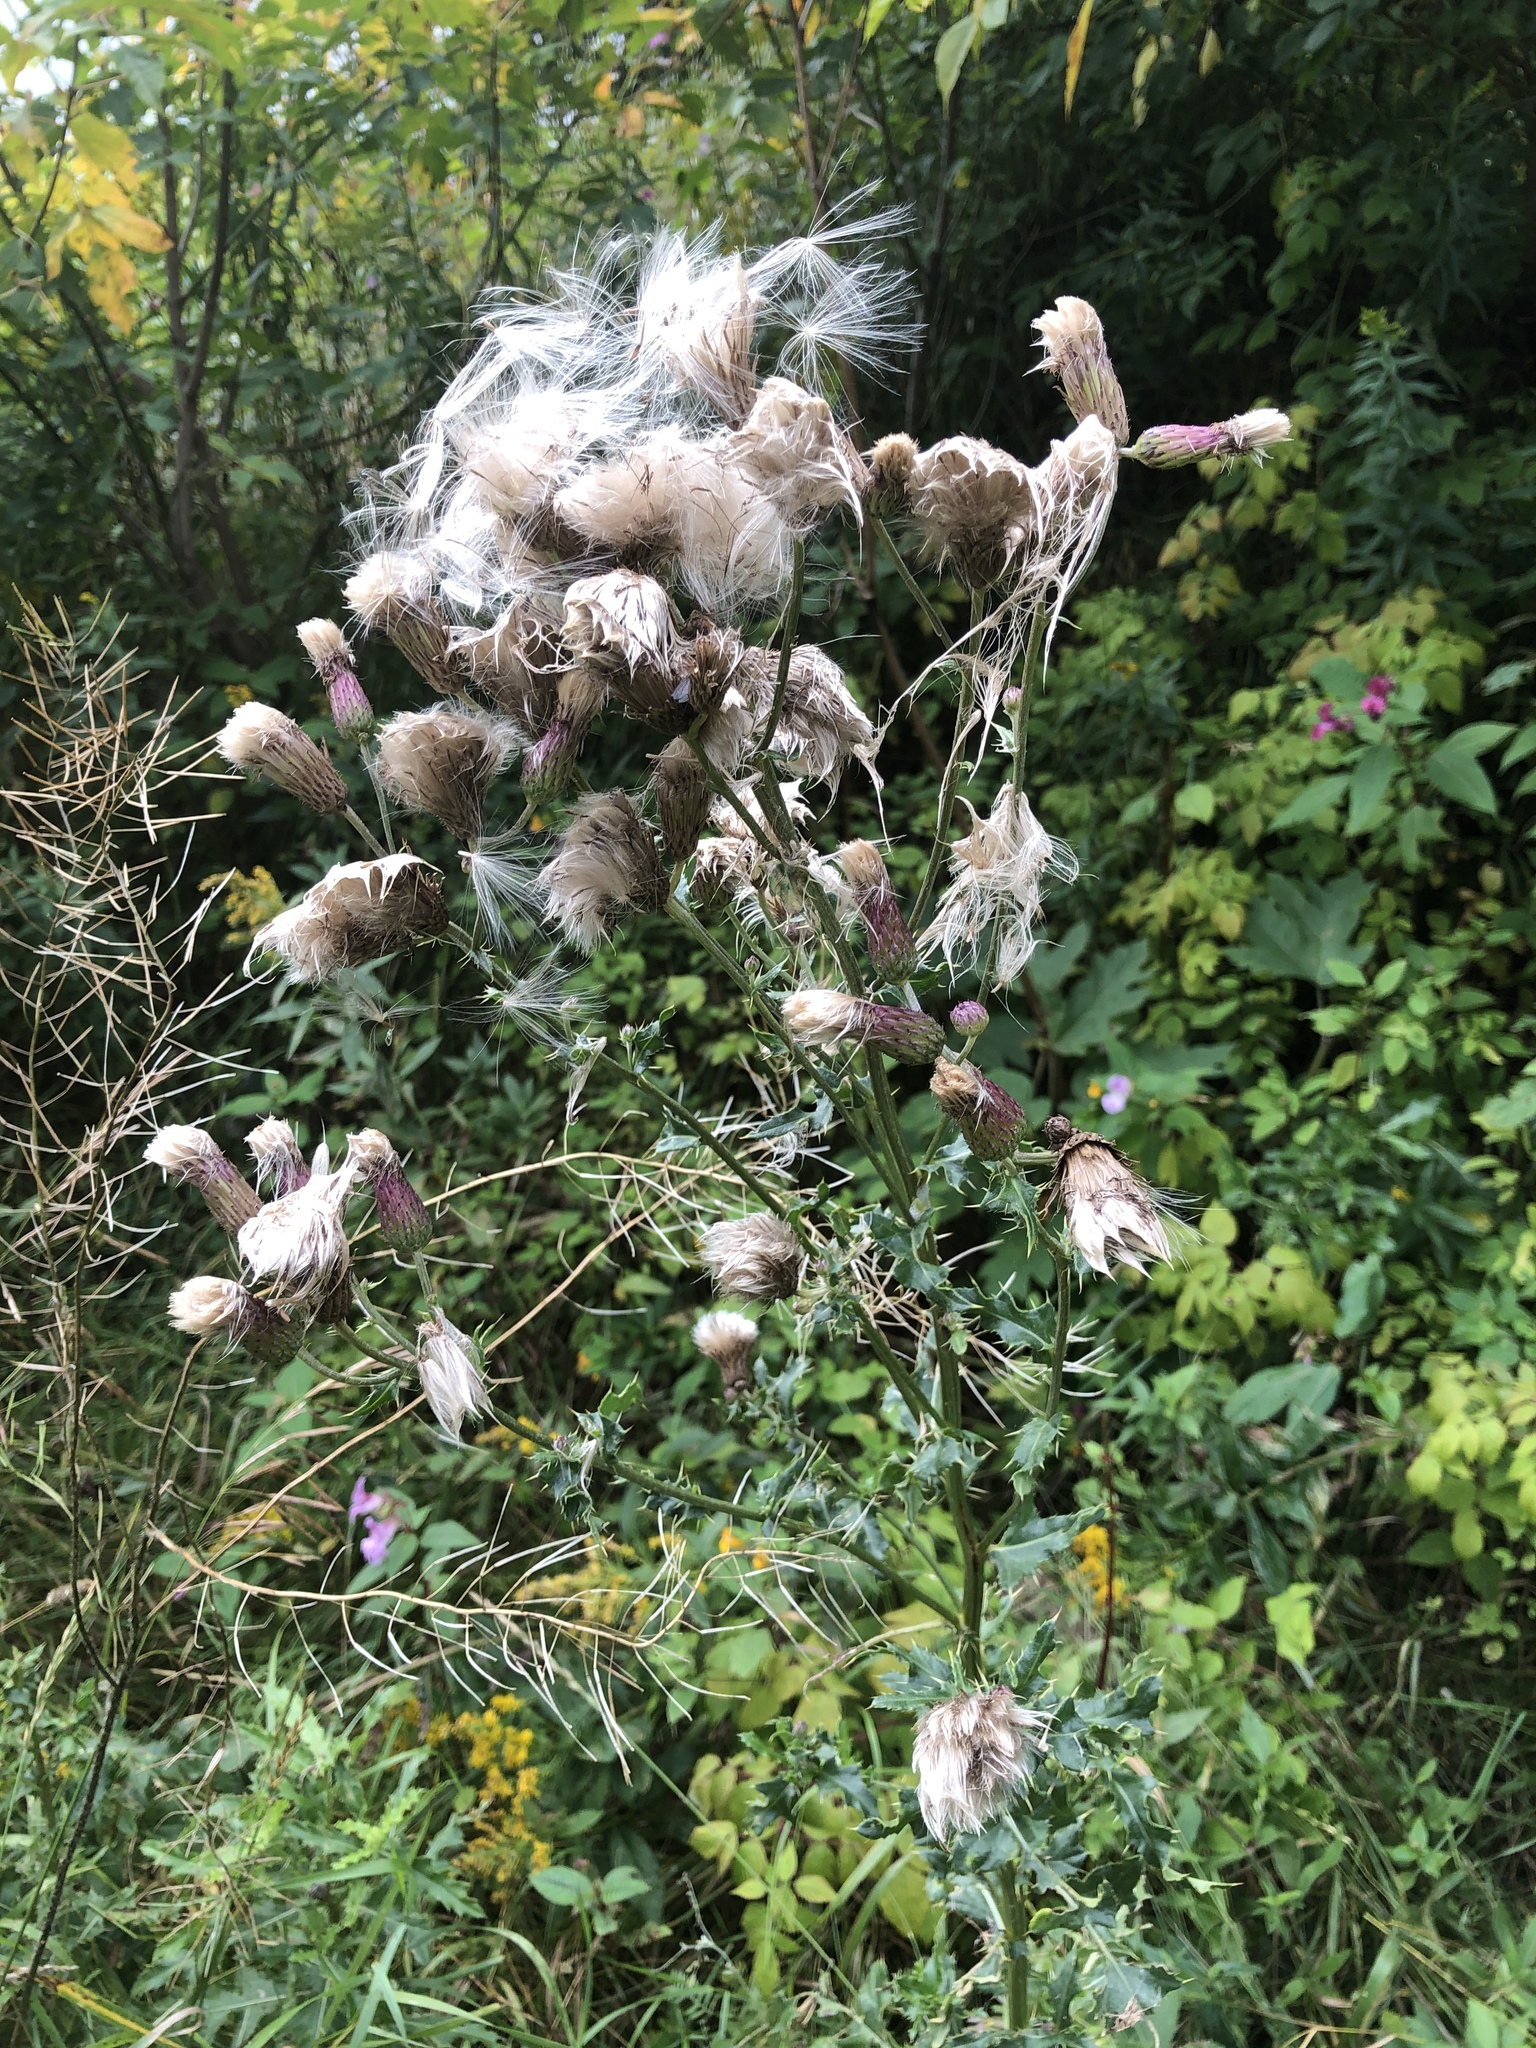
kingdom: Plantae
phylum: Tracheophyta
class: Magnoliopsida
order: Asterales
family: Asteraceae
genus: Cirsium
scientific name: Cirsium arvense
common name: Creeping thistle
